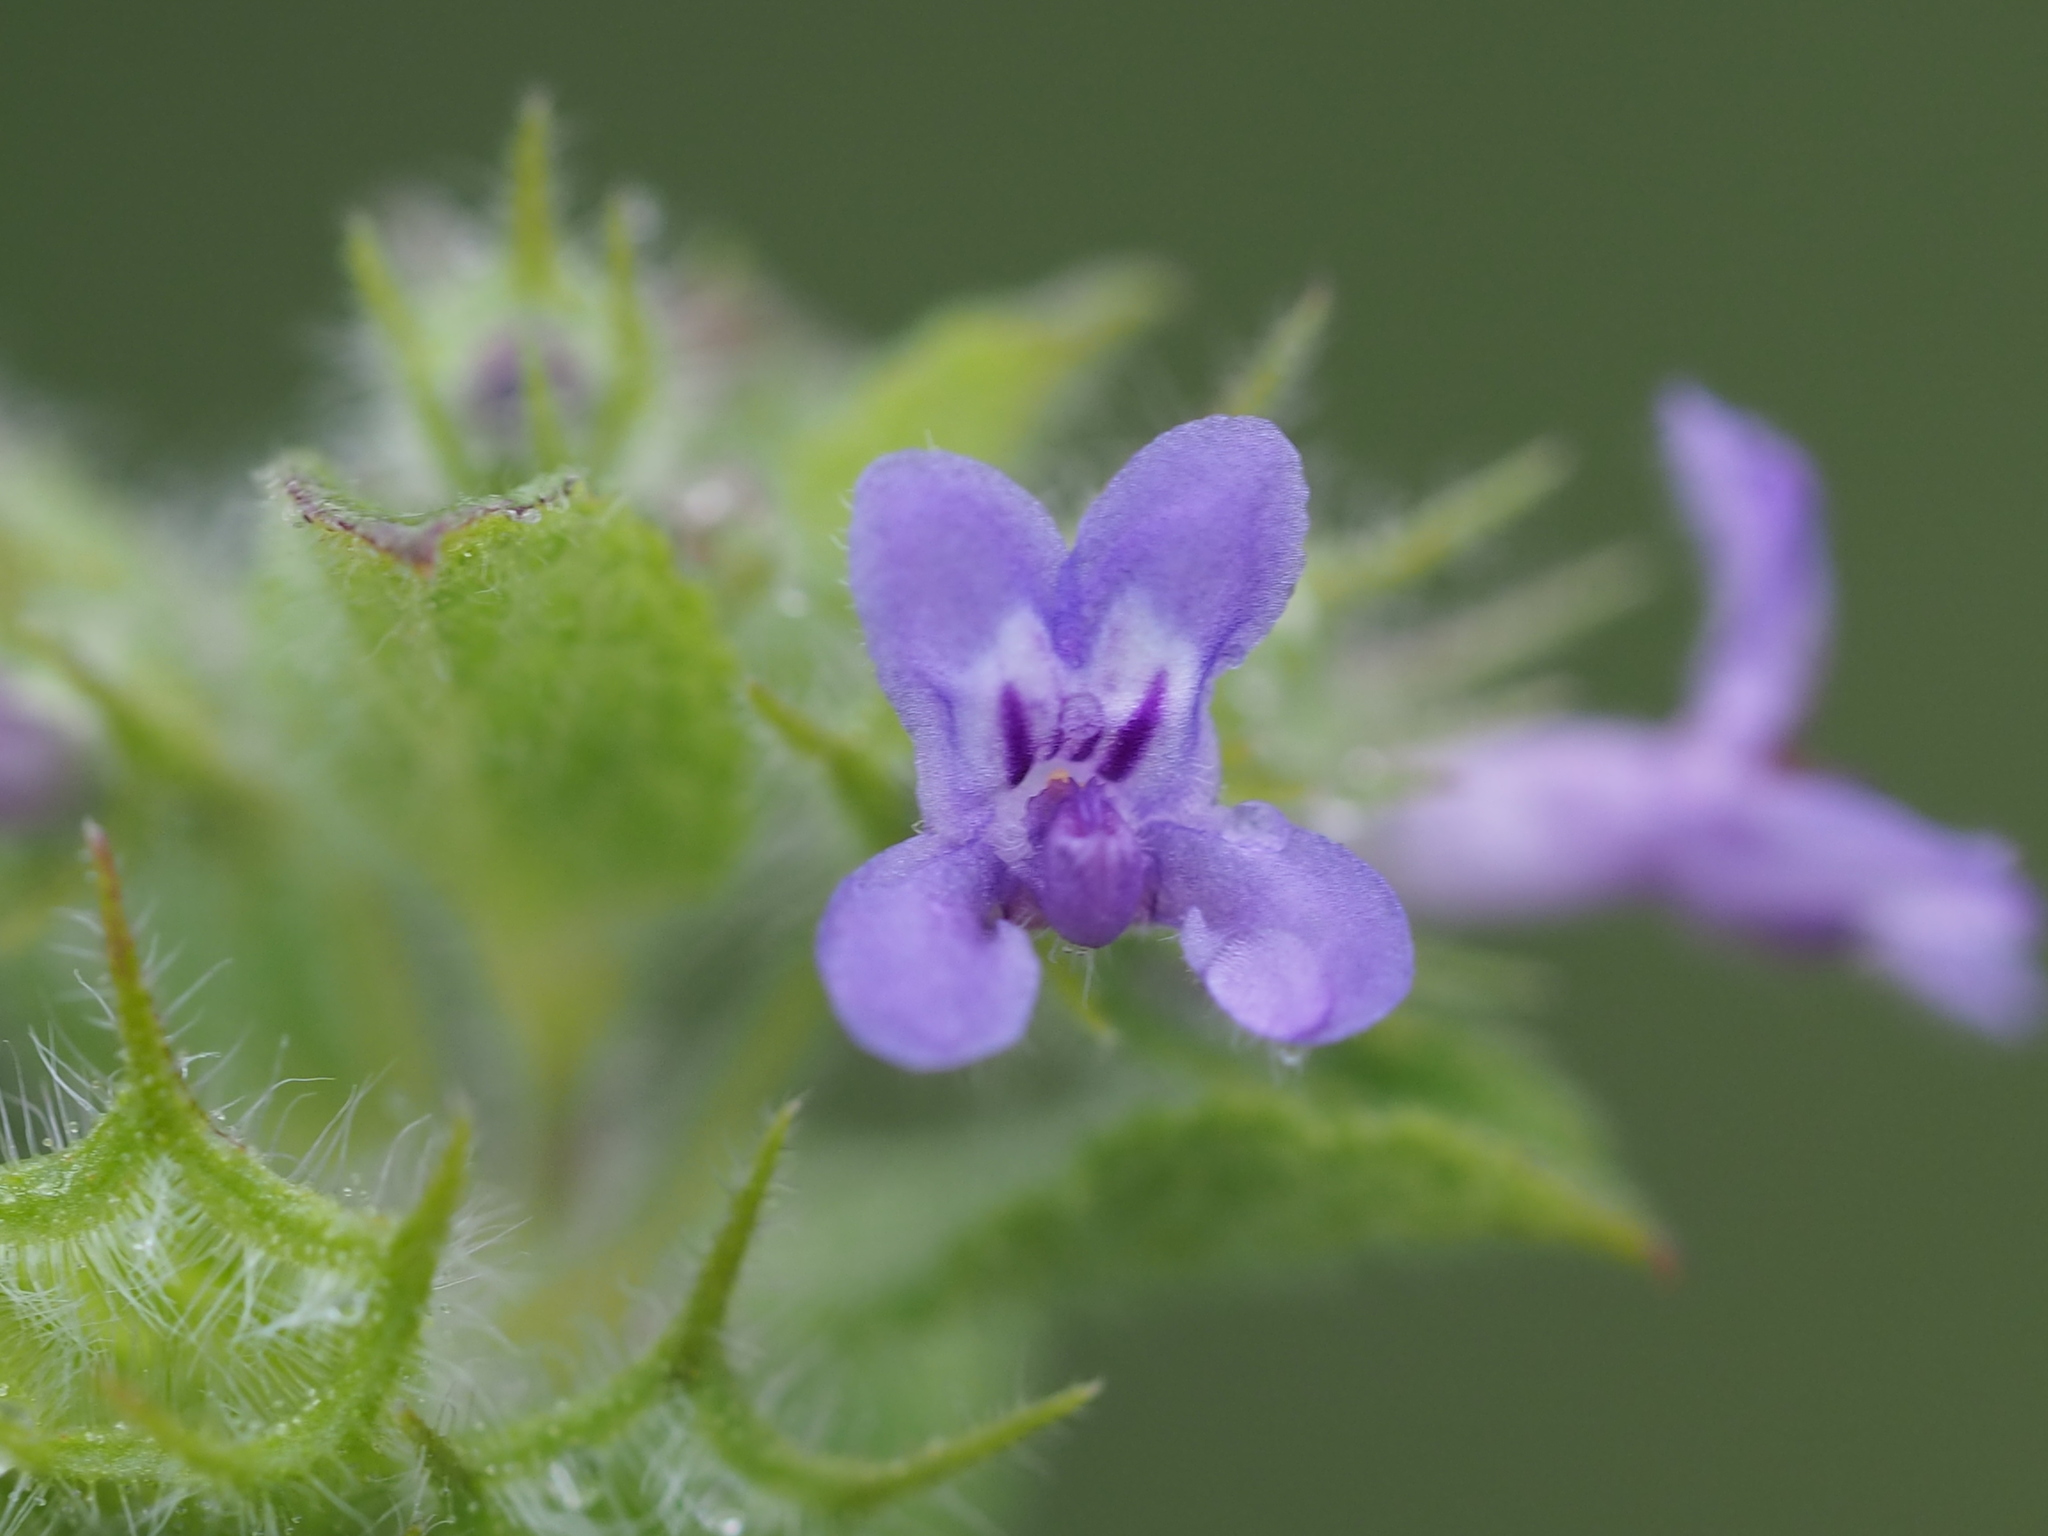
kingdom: Plantae
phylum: Tracheophyta
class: Magnoliopsida
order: Lamiales
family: Lamiaceae
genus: Mesosphaerum
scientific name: Mesosphaerum suaveolens
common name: Pignut
